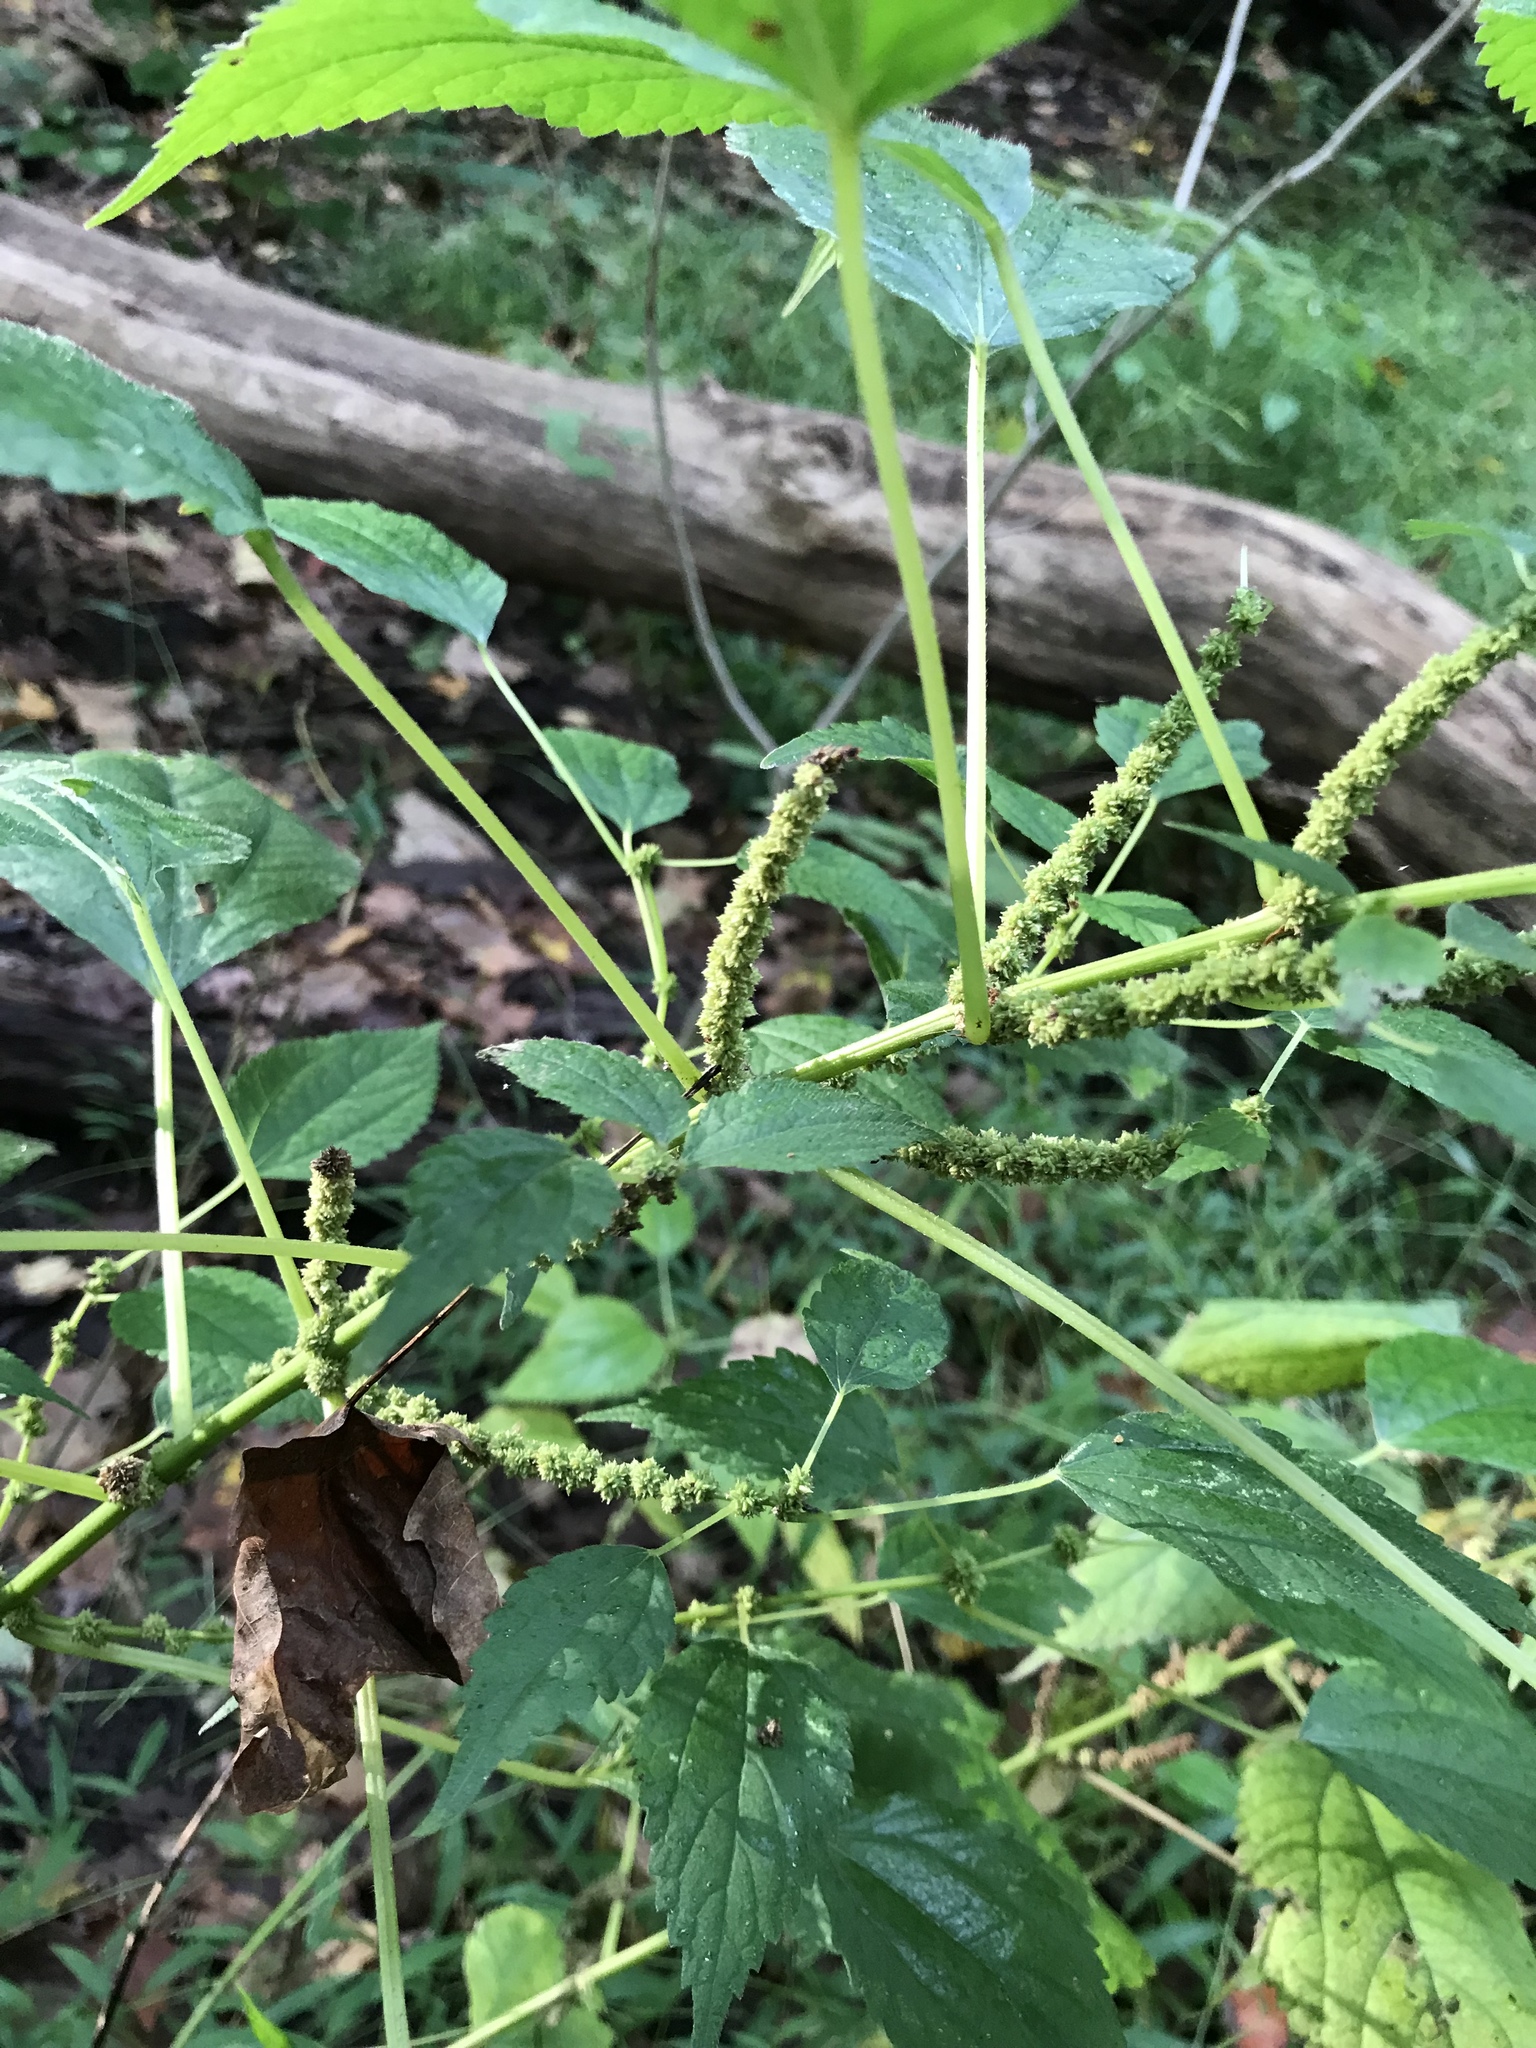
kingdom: Plantae
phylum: Tracheophyta
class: Magnoliopsida
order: Rosales
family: Urticaceae
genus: Boehmeria
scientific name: Boehmeria cylindrica
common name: Bog-hemp
